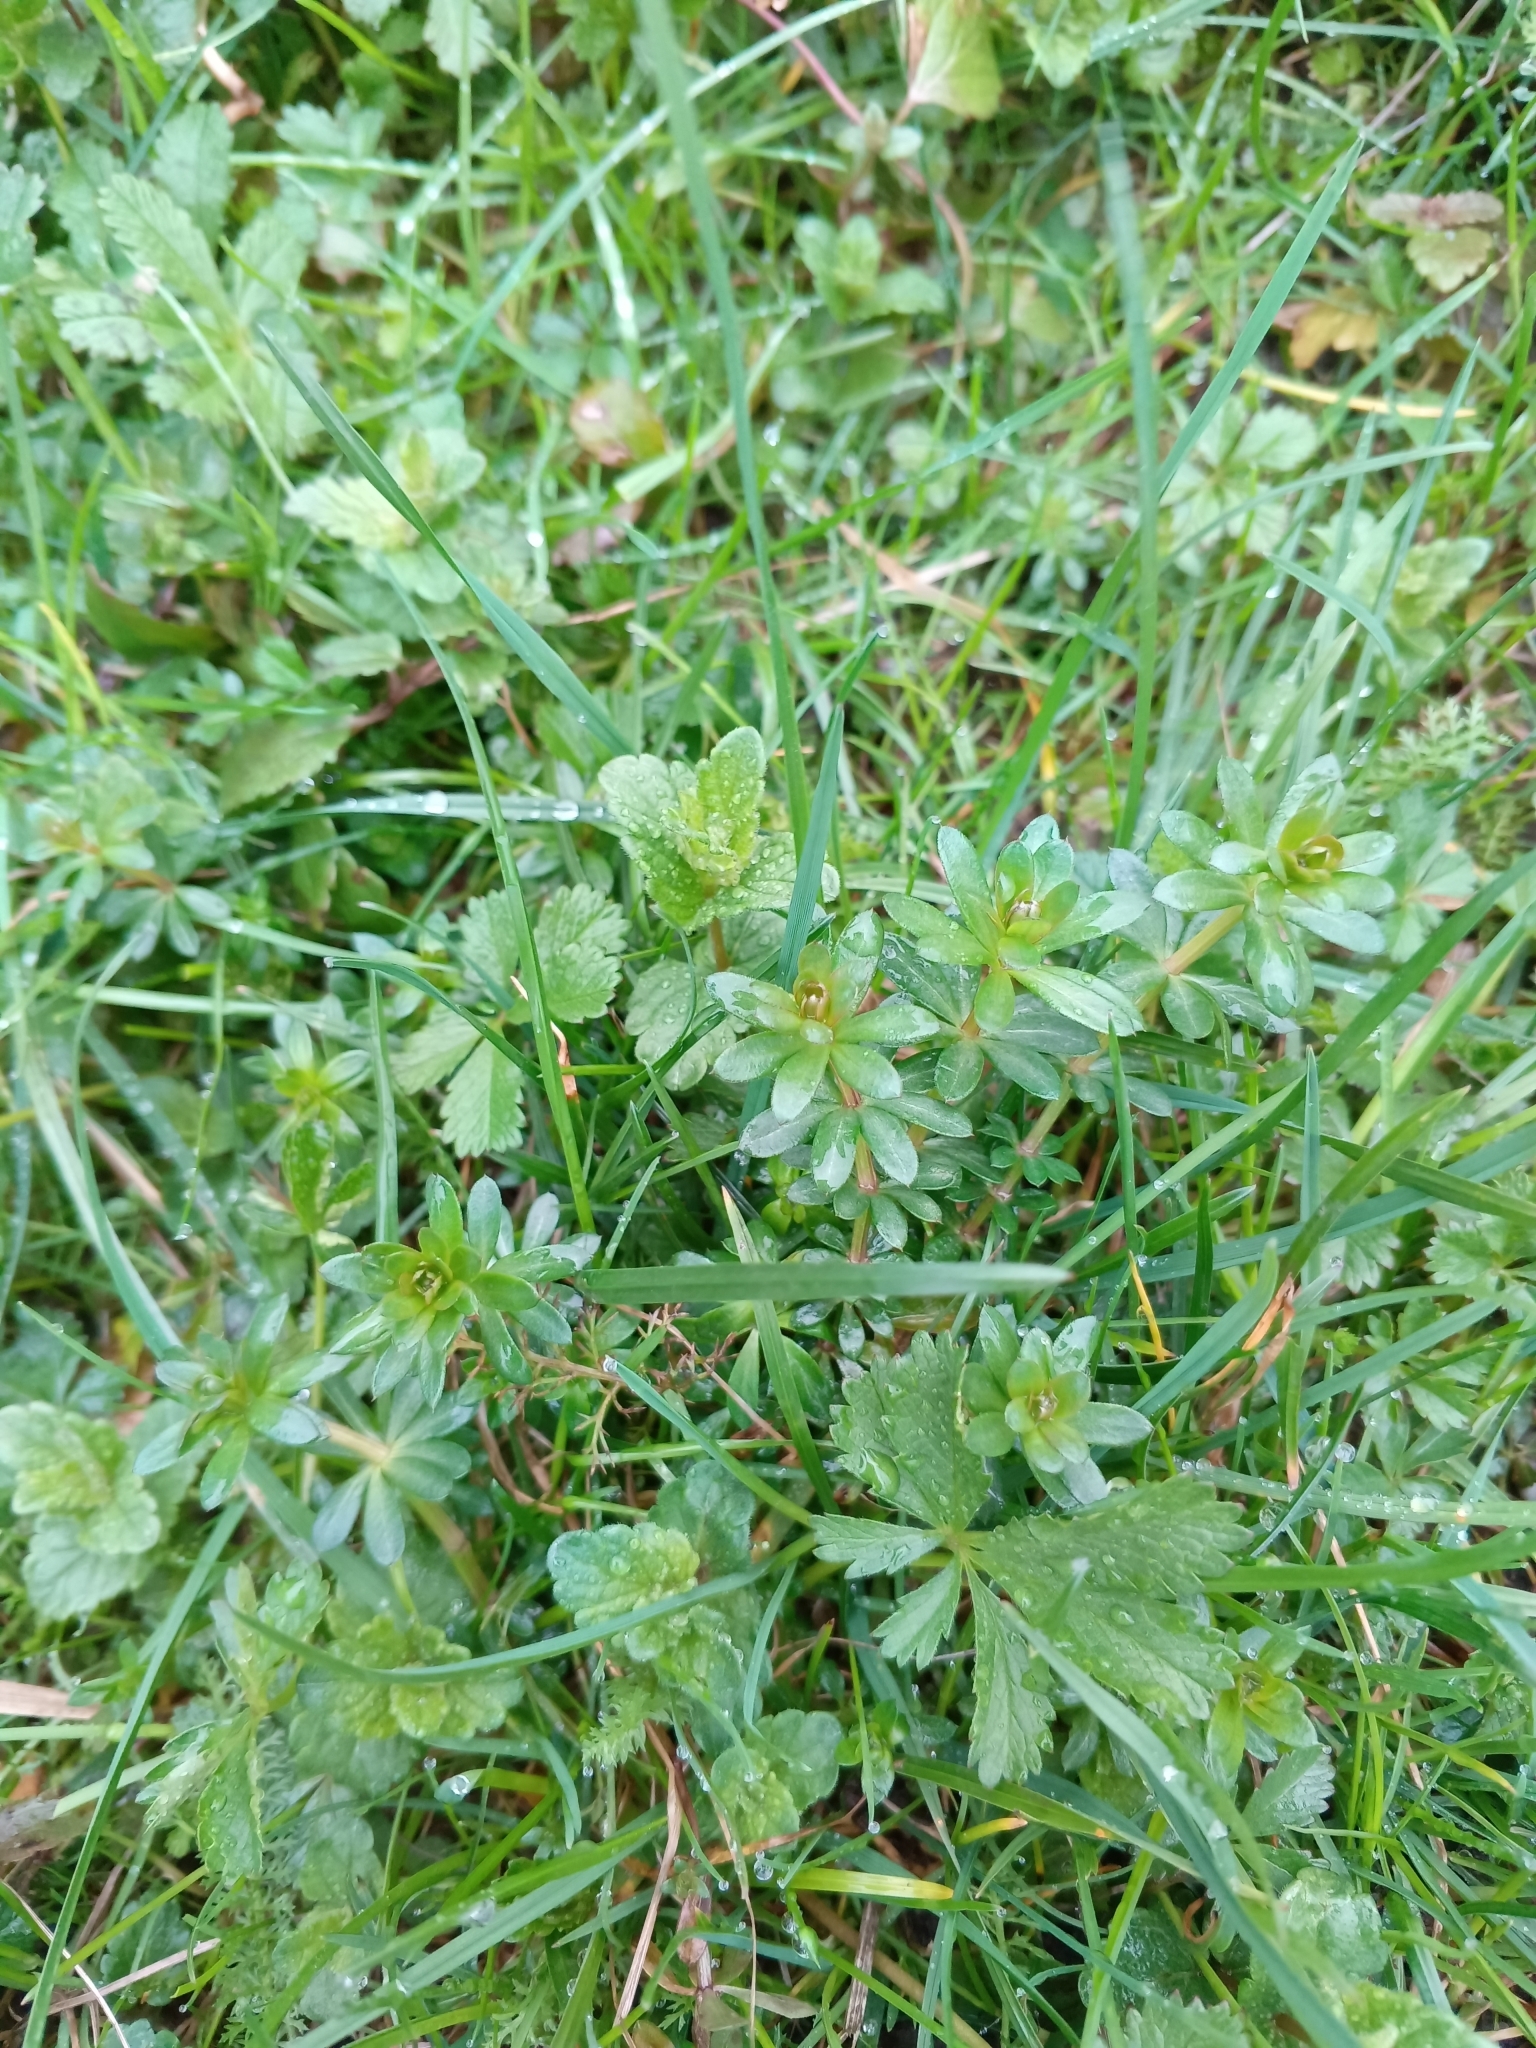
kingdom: Plantae
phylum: Tracheophyta
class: Magnoliopsida
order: Gentianales
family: Rubiaceae
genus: Galium
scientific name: Galium mollugo
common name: Hedge bedstraw
